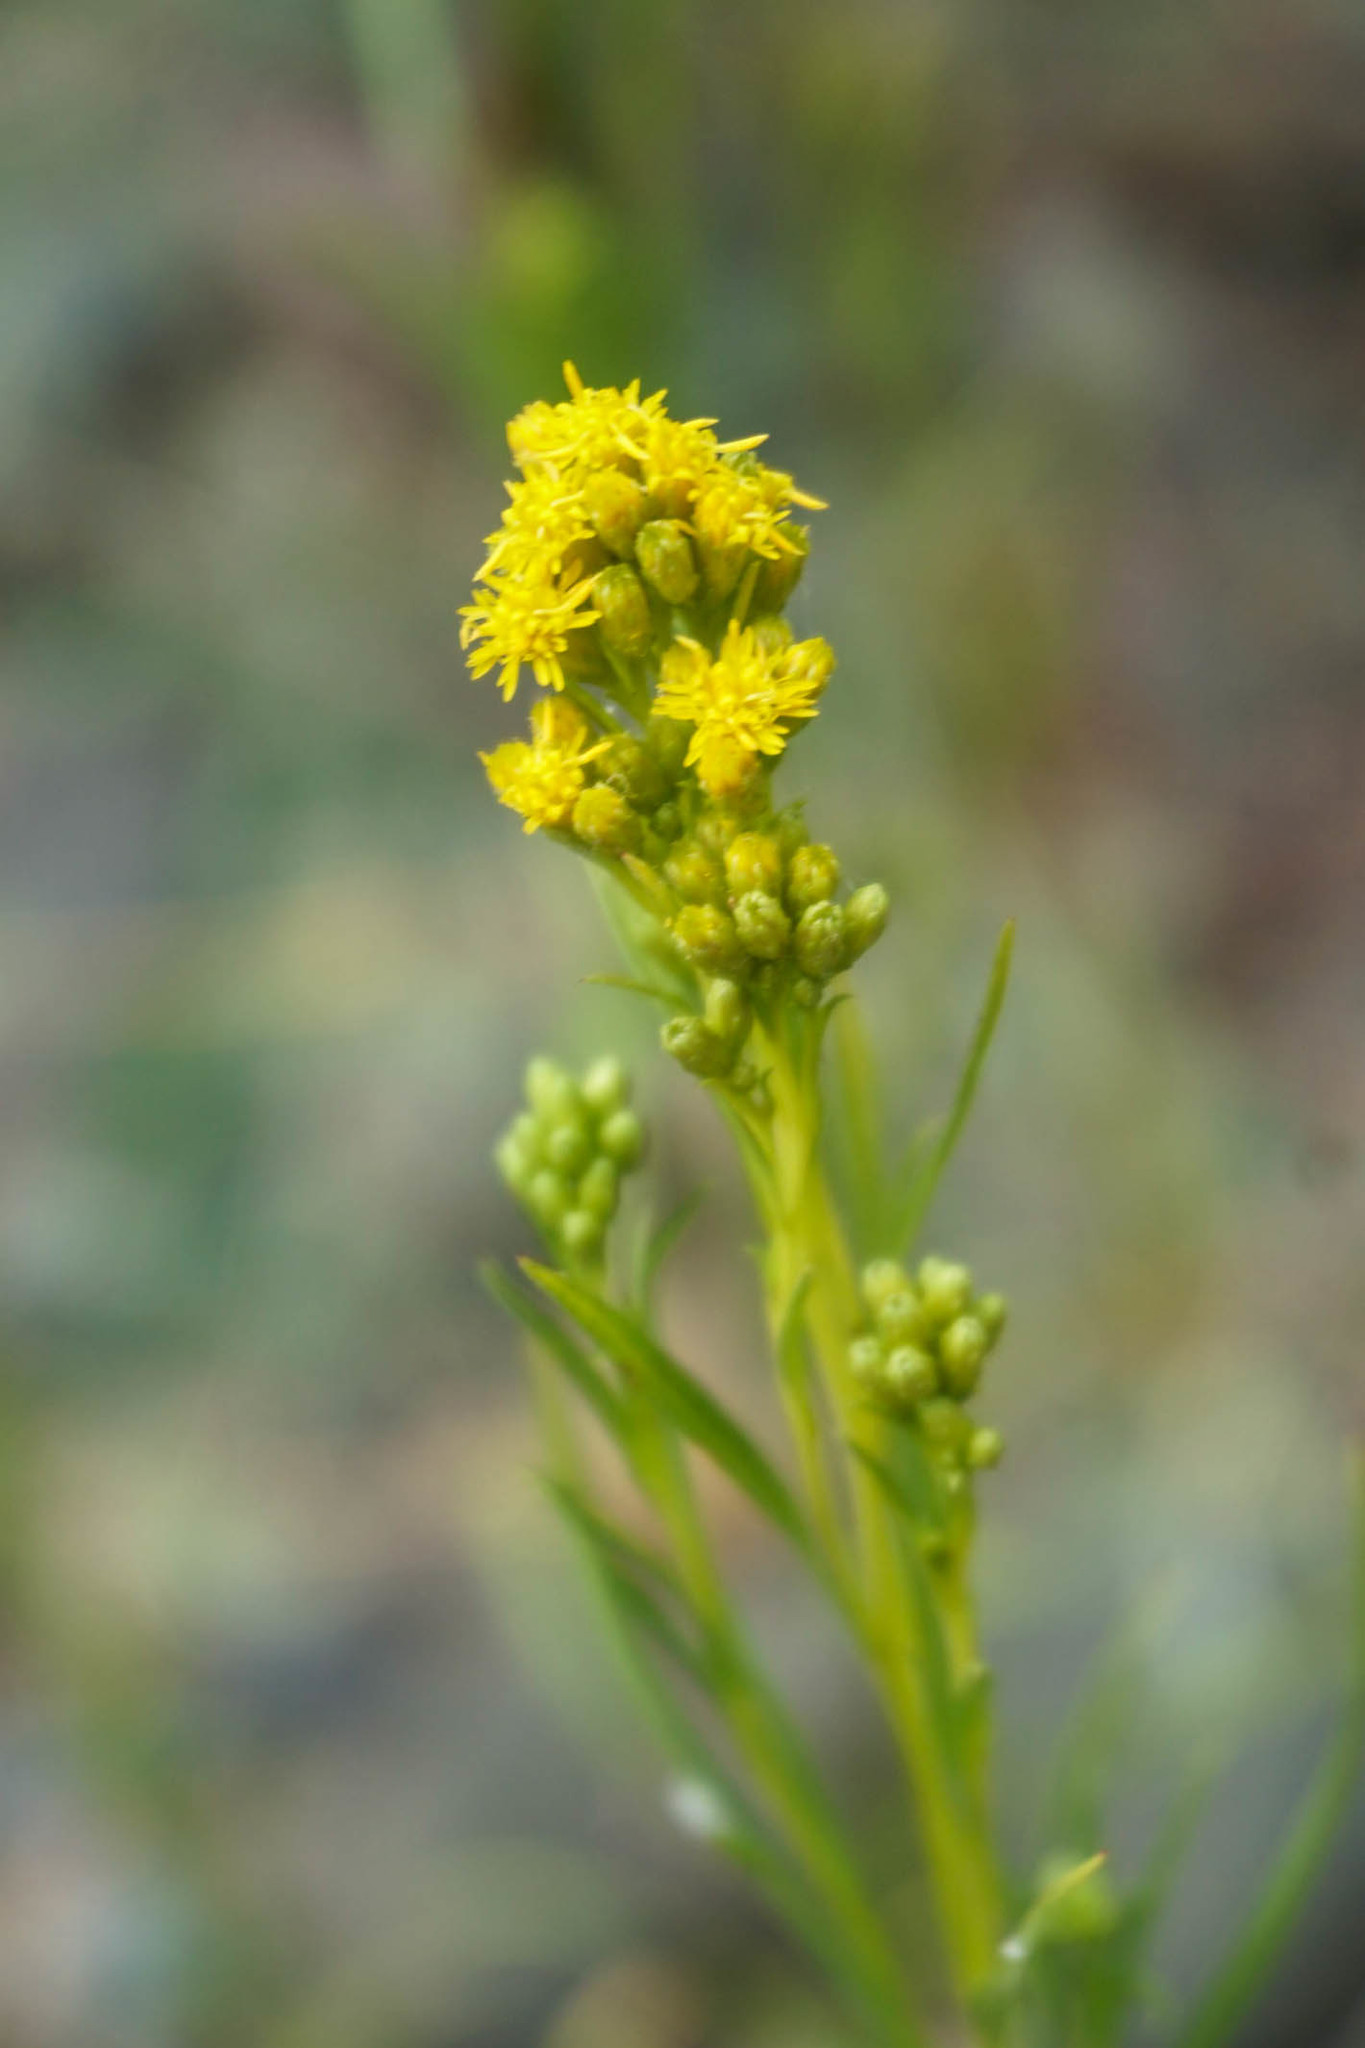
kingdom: Plantae
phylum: Tracheophyta
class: Magnoliopsida
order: Asterales
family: Asteraceae
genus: Solidago
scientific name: Solidago spathulata
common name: Coast goldenrod
